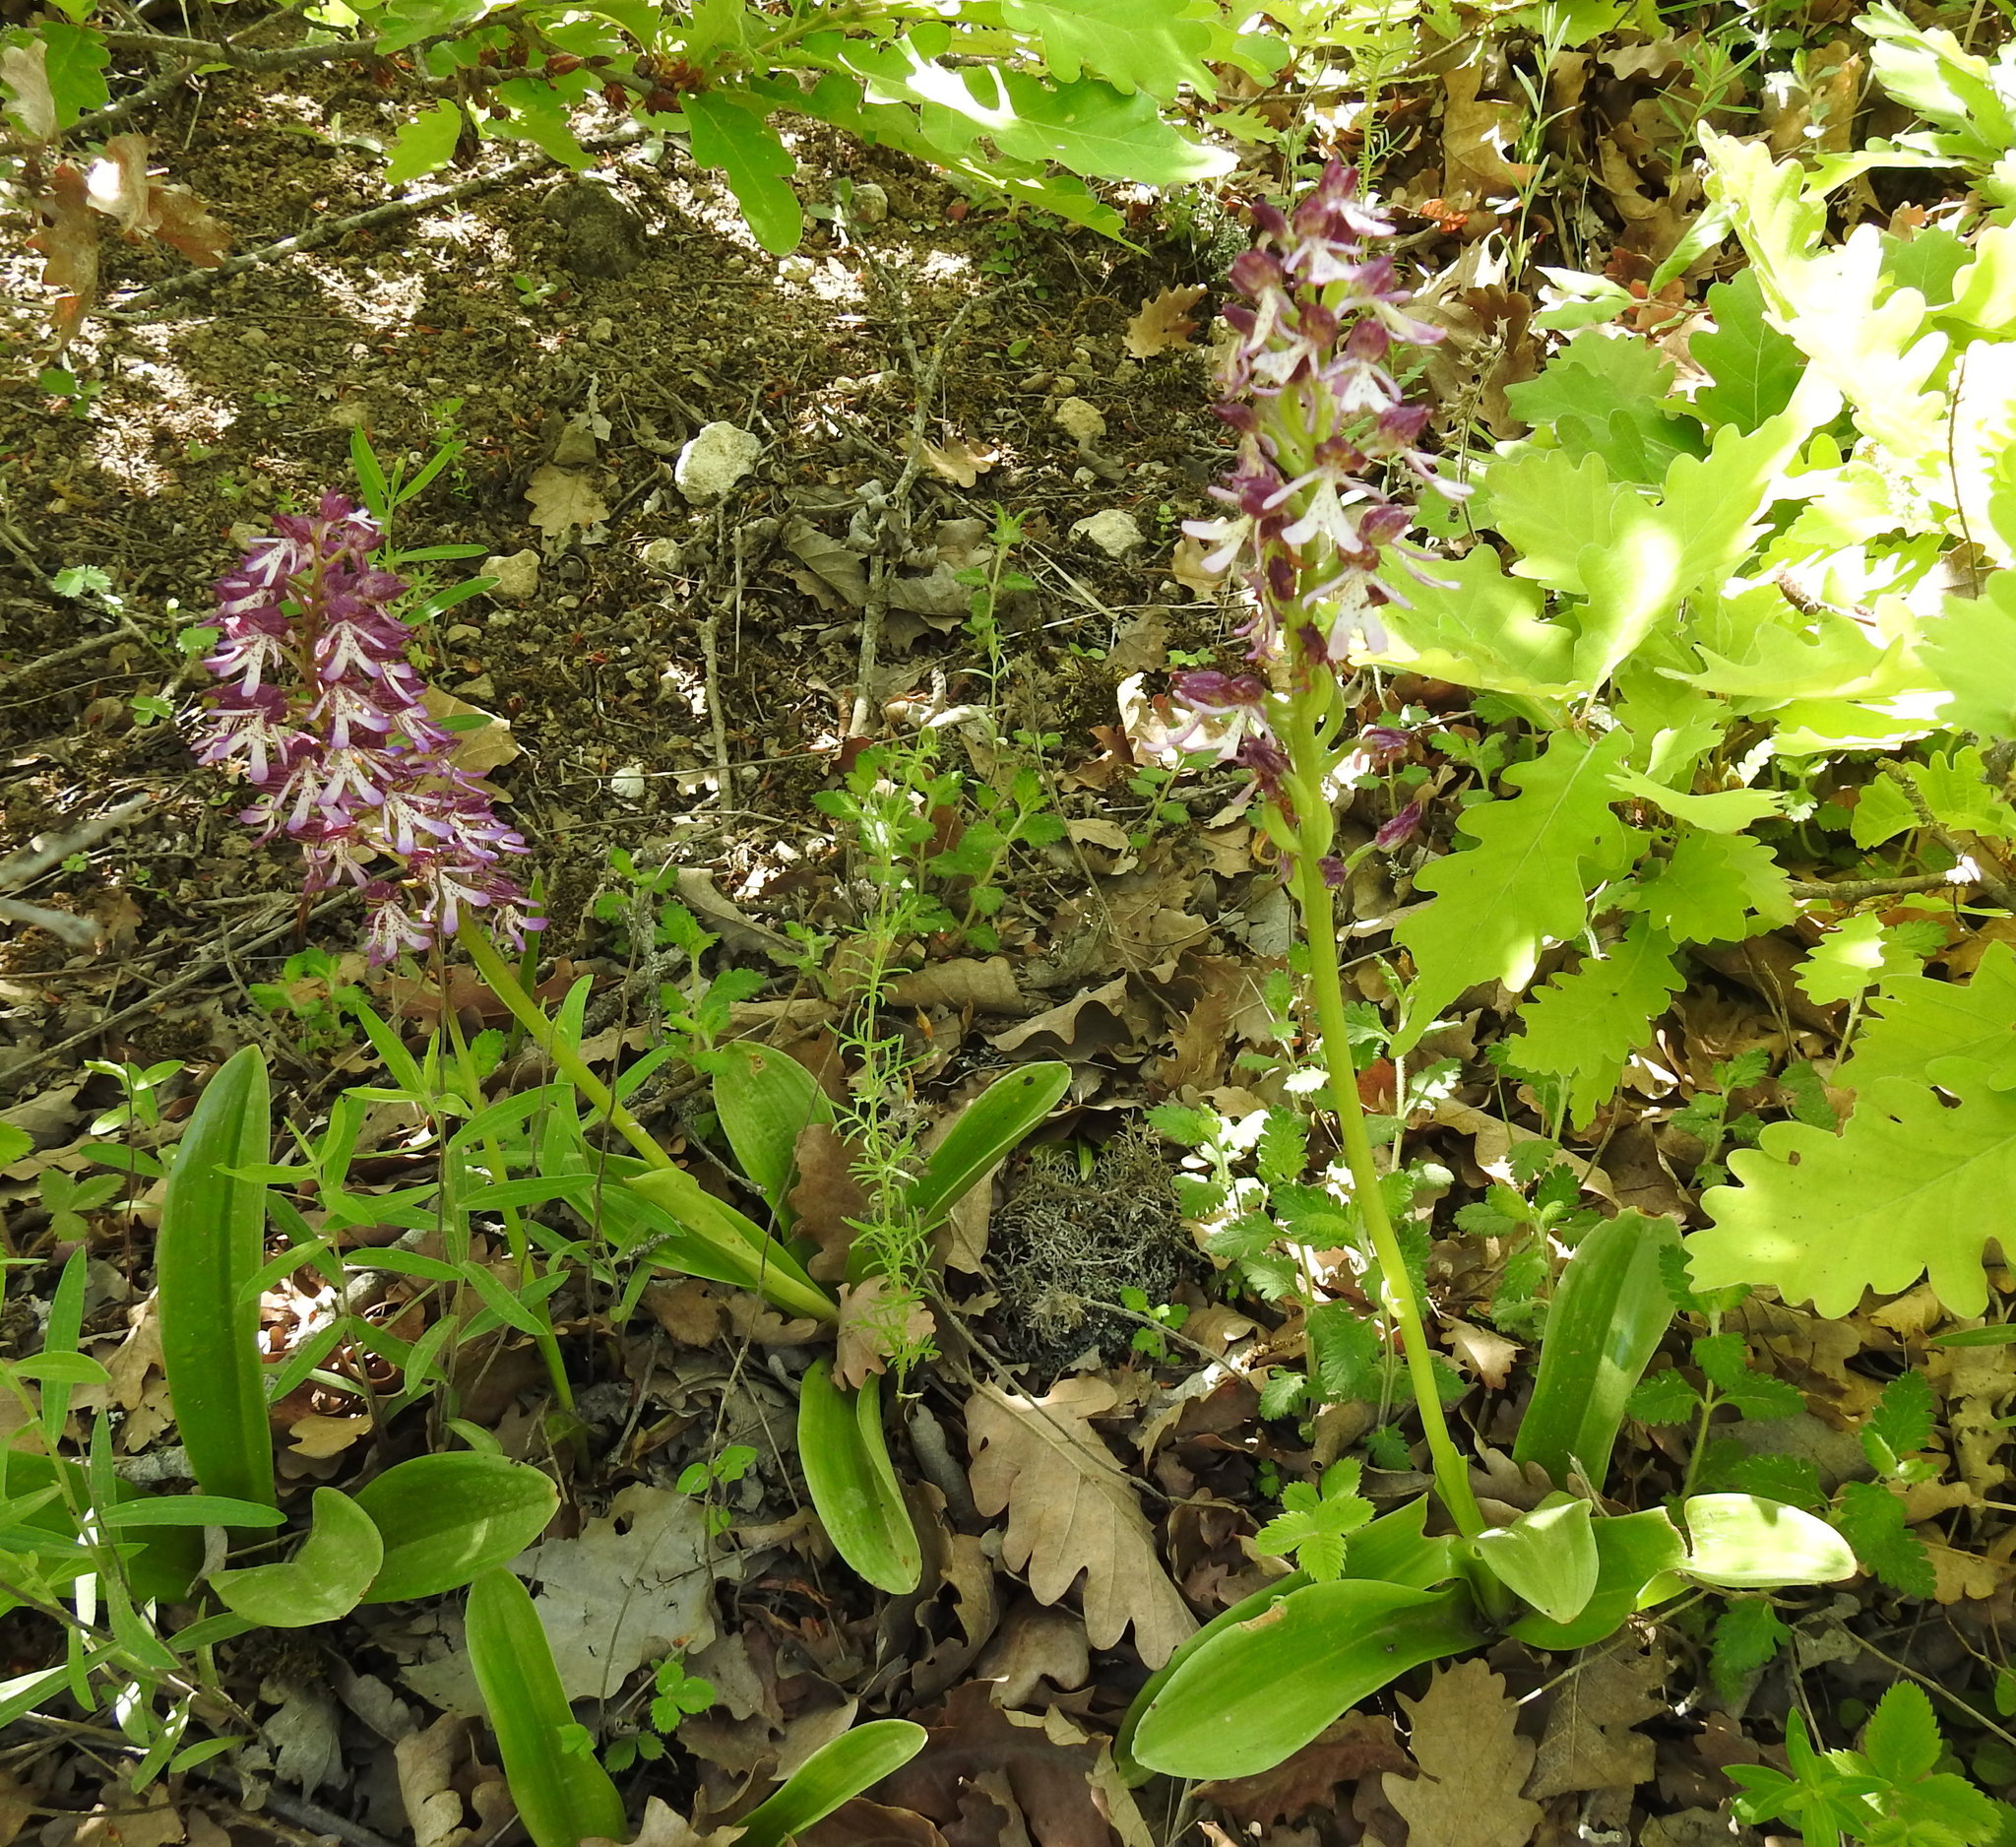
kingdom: Plantae
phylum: Tracheophyta
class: Liliopsida
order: Asparagales
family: Orchidaceae
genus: Orchis
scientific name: Orchis purpurea
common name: Lady orchid
